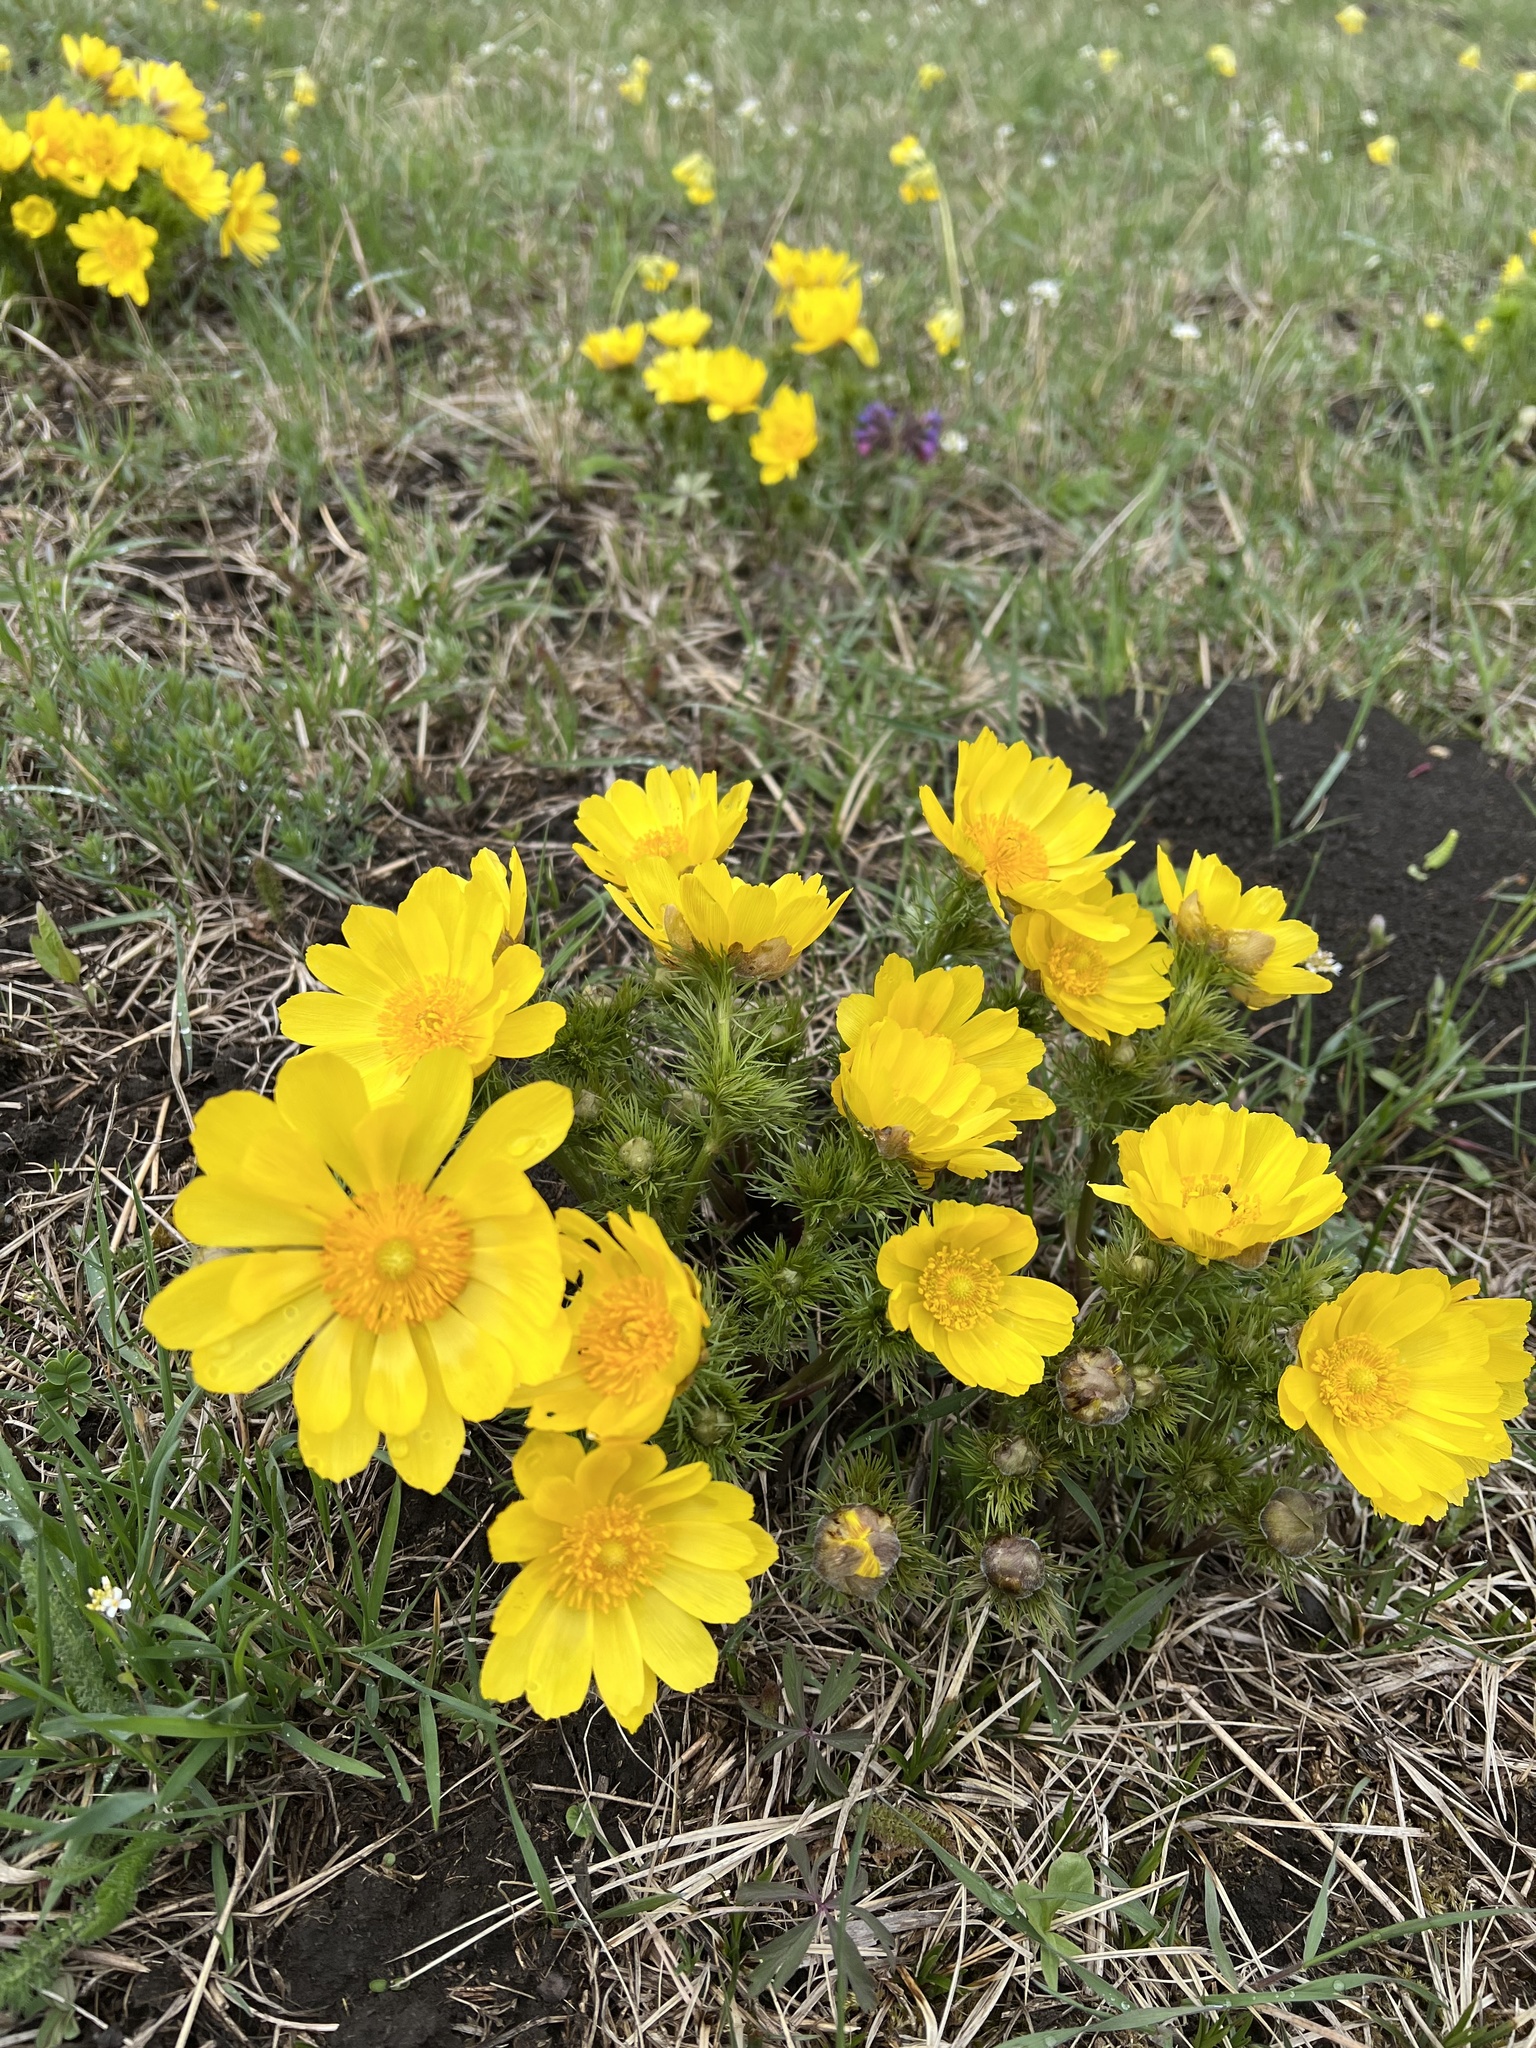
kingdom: Plantae
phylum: Tracheophyta
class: Magnoliopsida
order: Ranunculales
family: Ranunculaceae
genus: Adonis
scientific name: Adonis vernalis
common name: Yellow pheasants-eye
